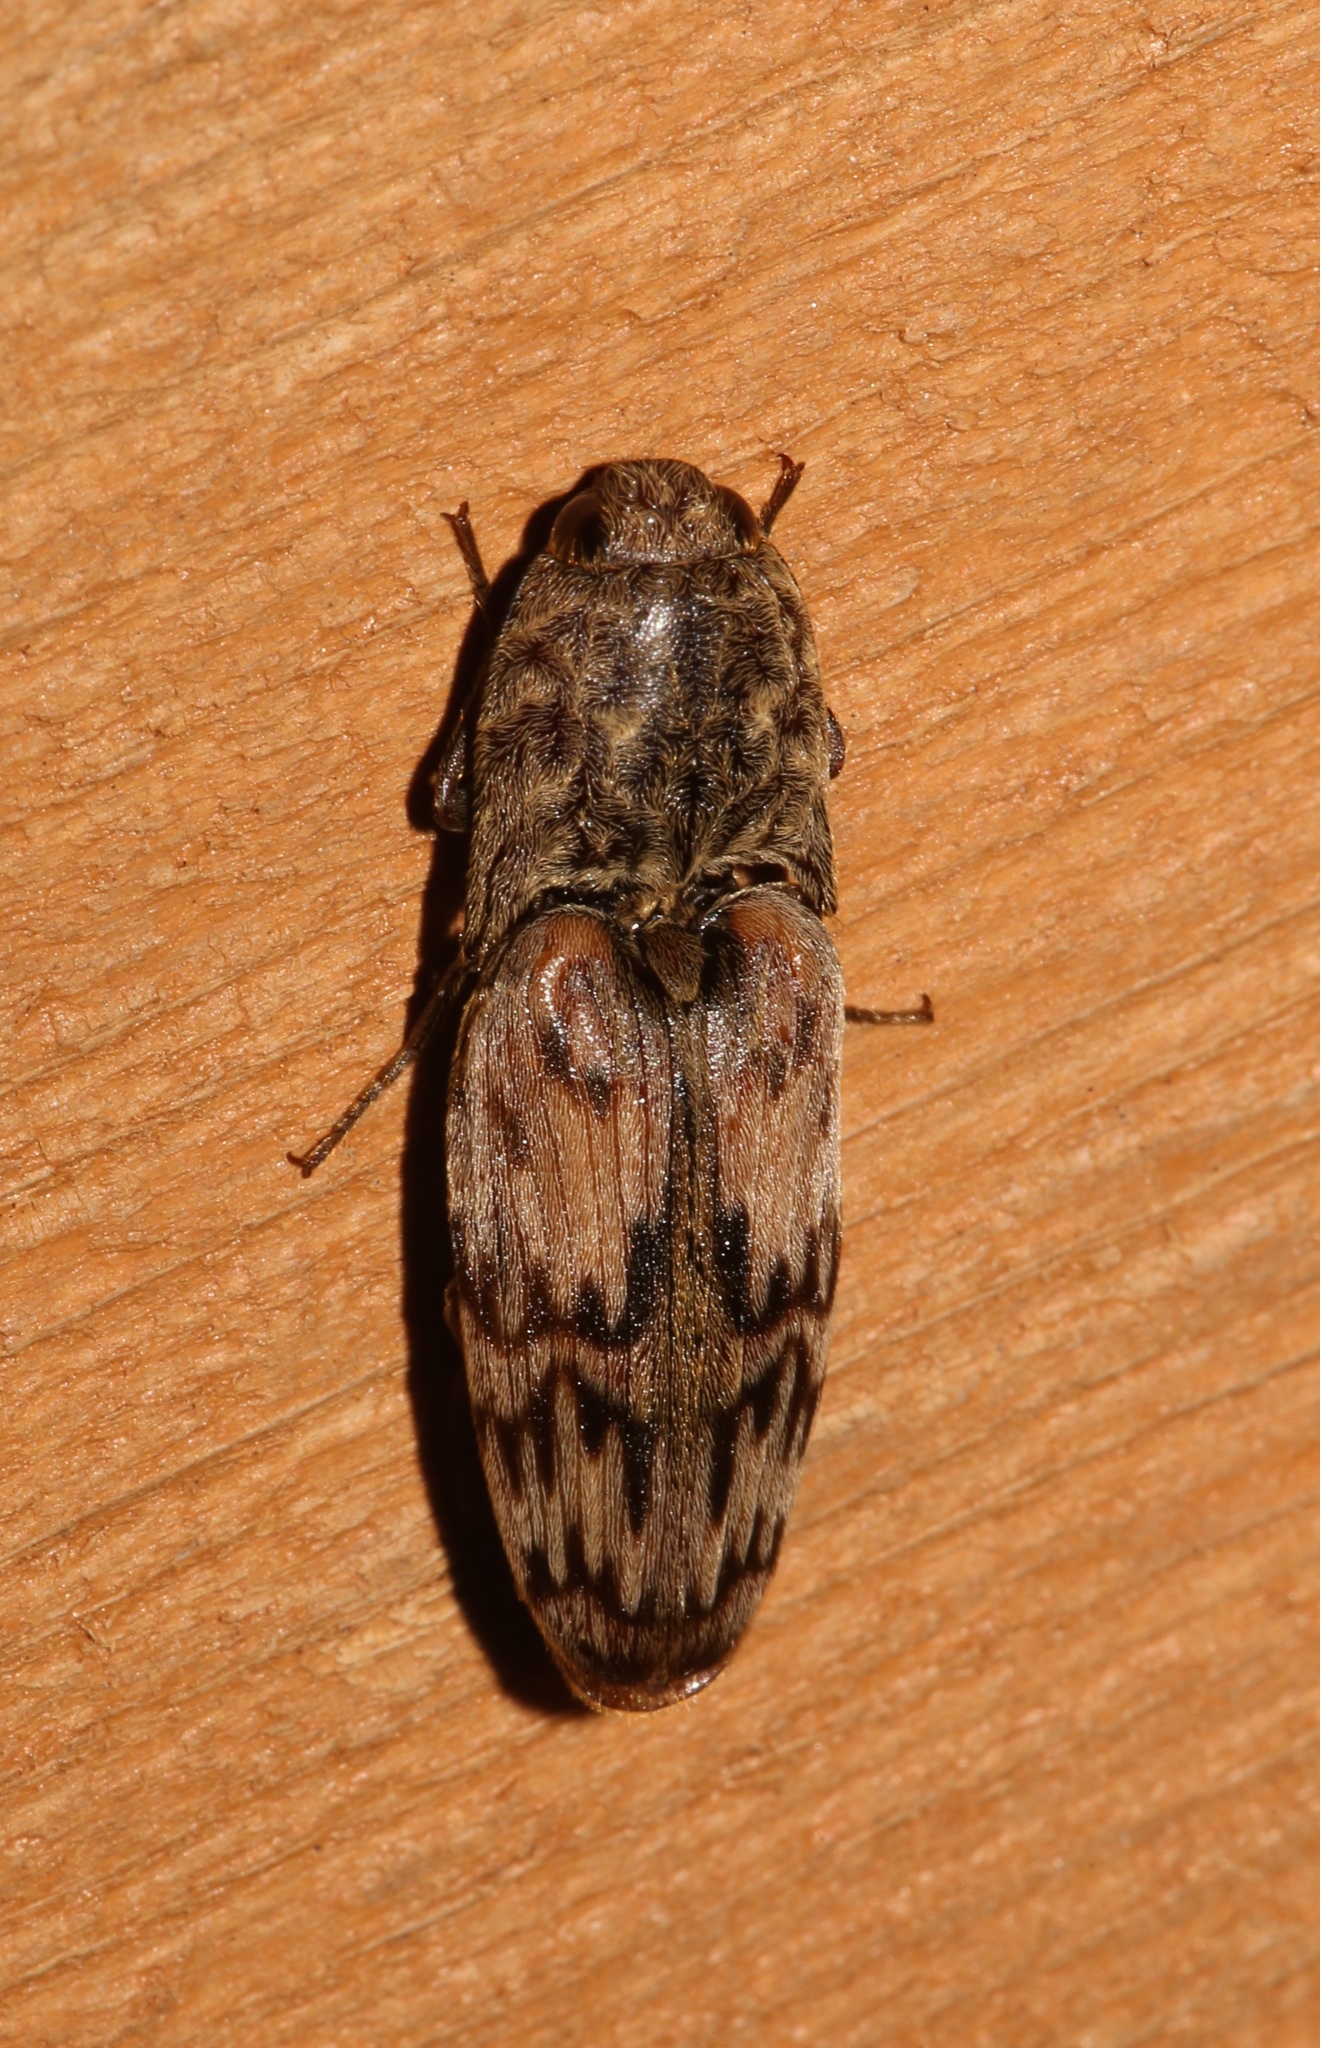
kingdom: Animalia
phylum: Arthropoda
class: Insecta
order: Coleoptera
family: Elateridae
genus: Pherhimius
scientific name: Pherhimius fascicularis
